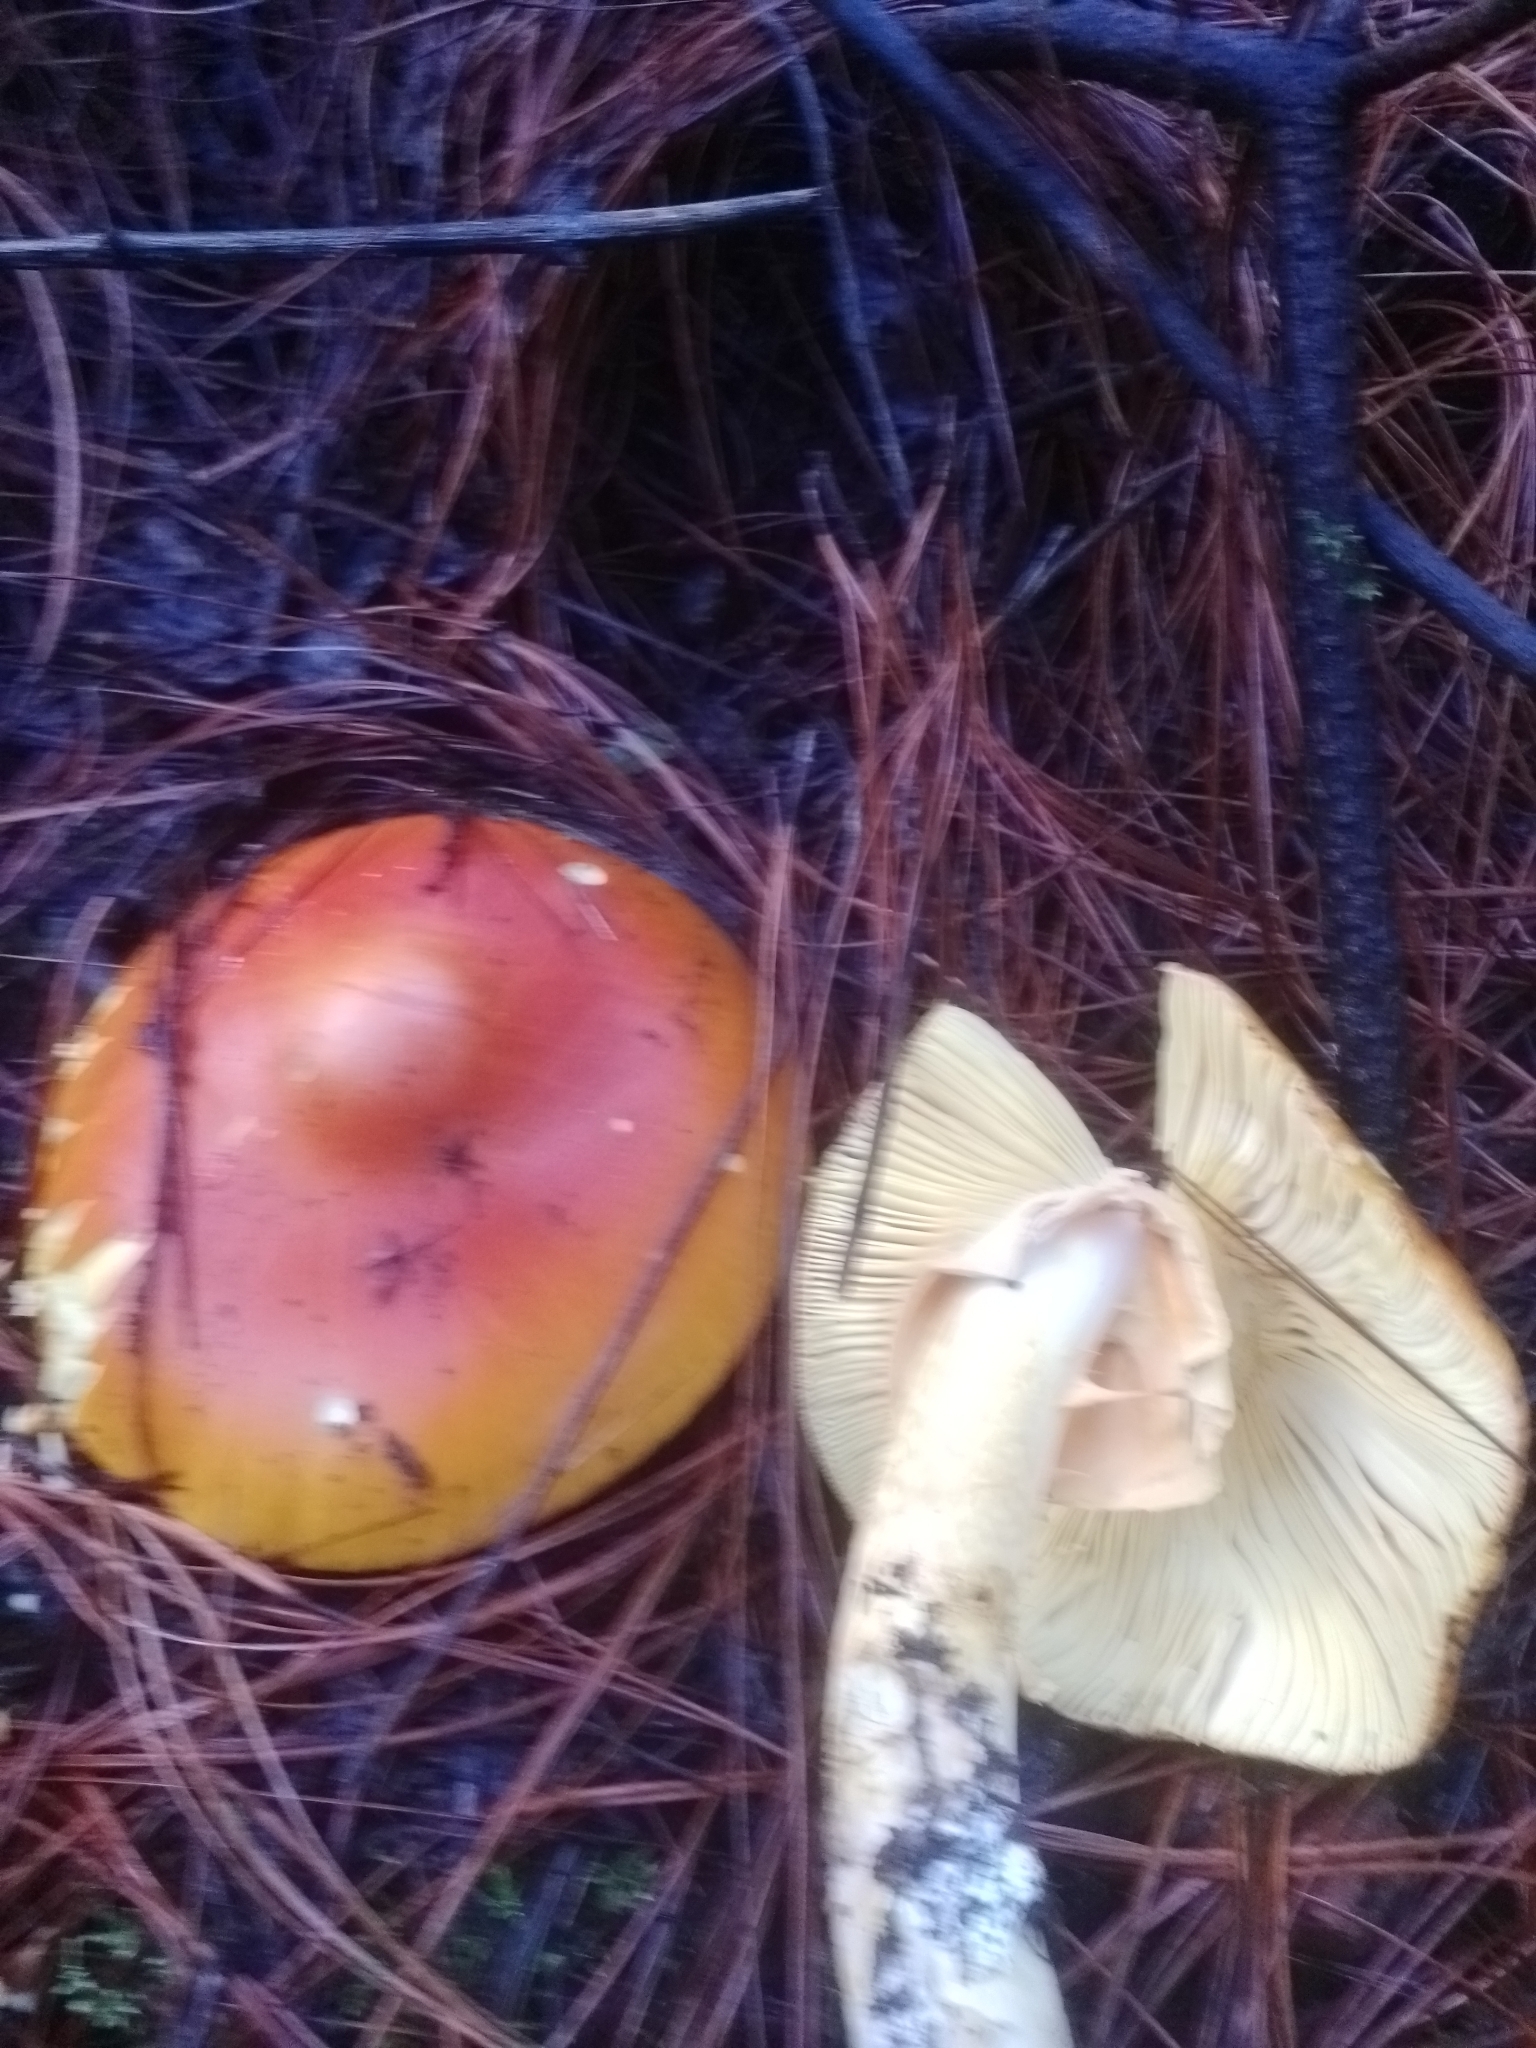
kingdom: Fungi
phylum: Basidiomycota
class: Agaricomycetes
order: Agaricales
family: Amanitaceae
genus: Amanita
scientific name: Amanita basii
